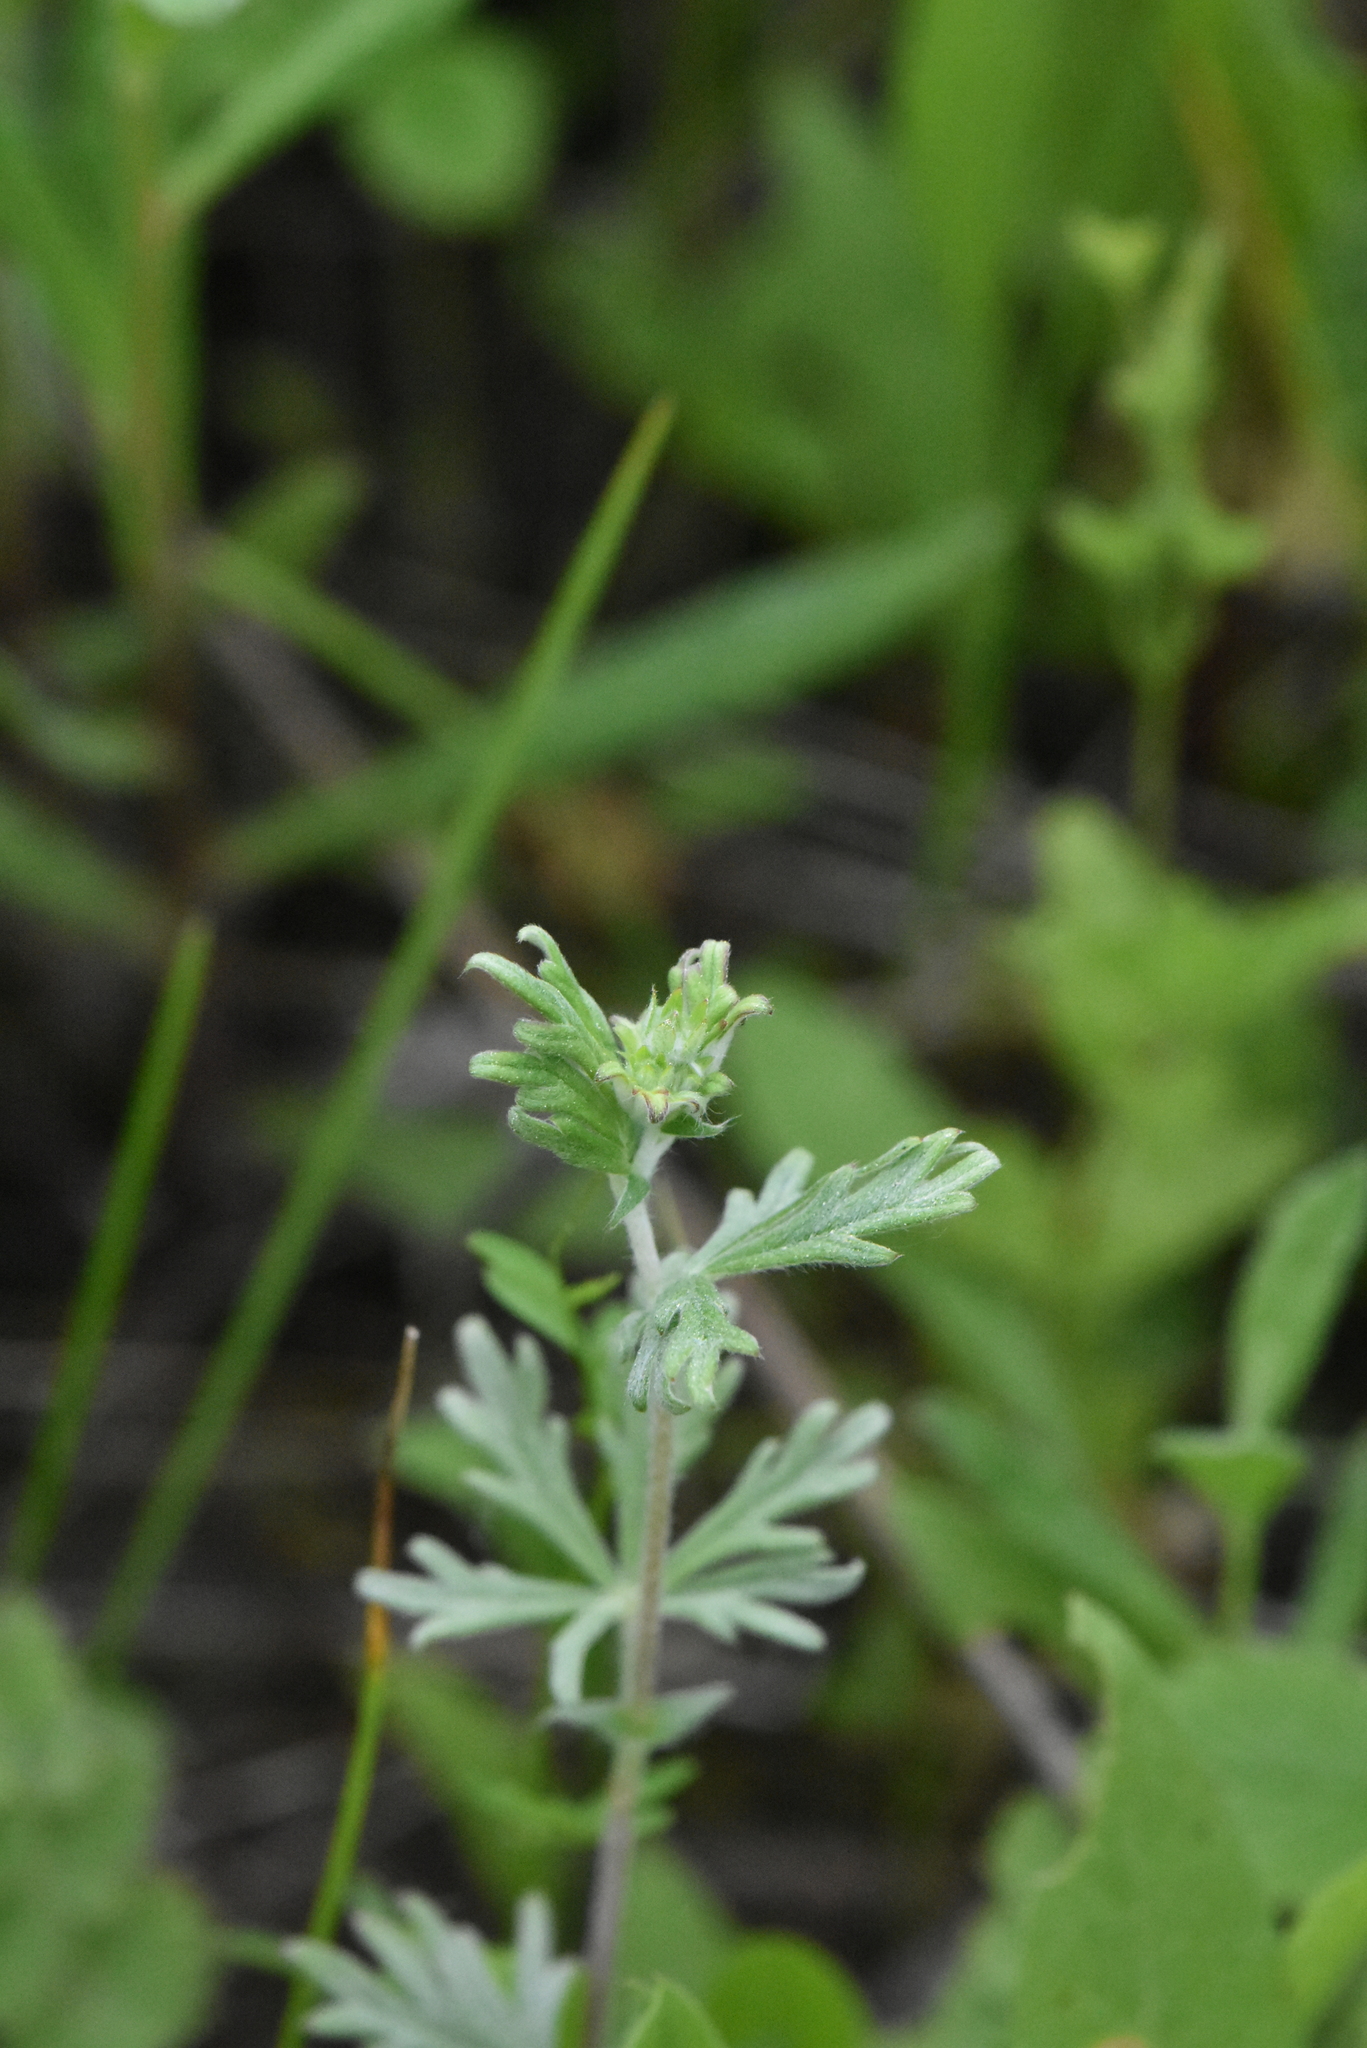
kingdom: Plantae
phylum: Tracheophyta
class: Magnoliopsida
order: Rosales
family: Rosaceae
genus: Potentilla
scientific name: Potentilla argentea
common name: Hoary cinquefoil
